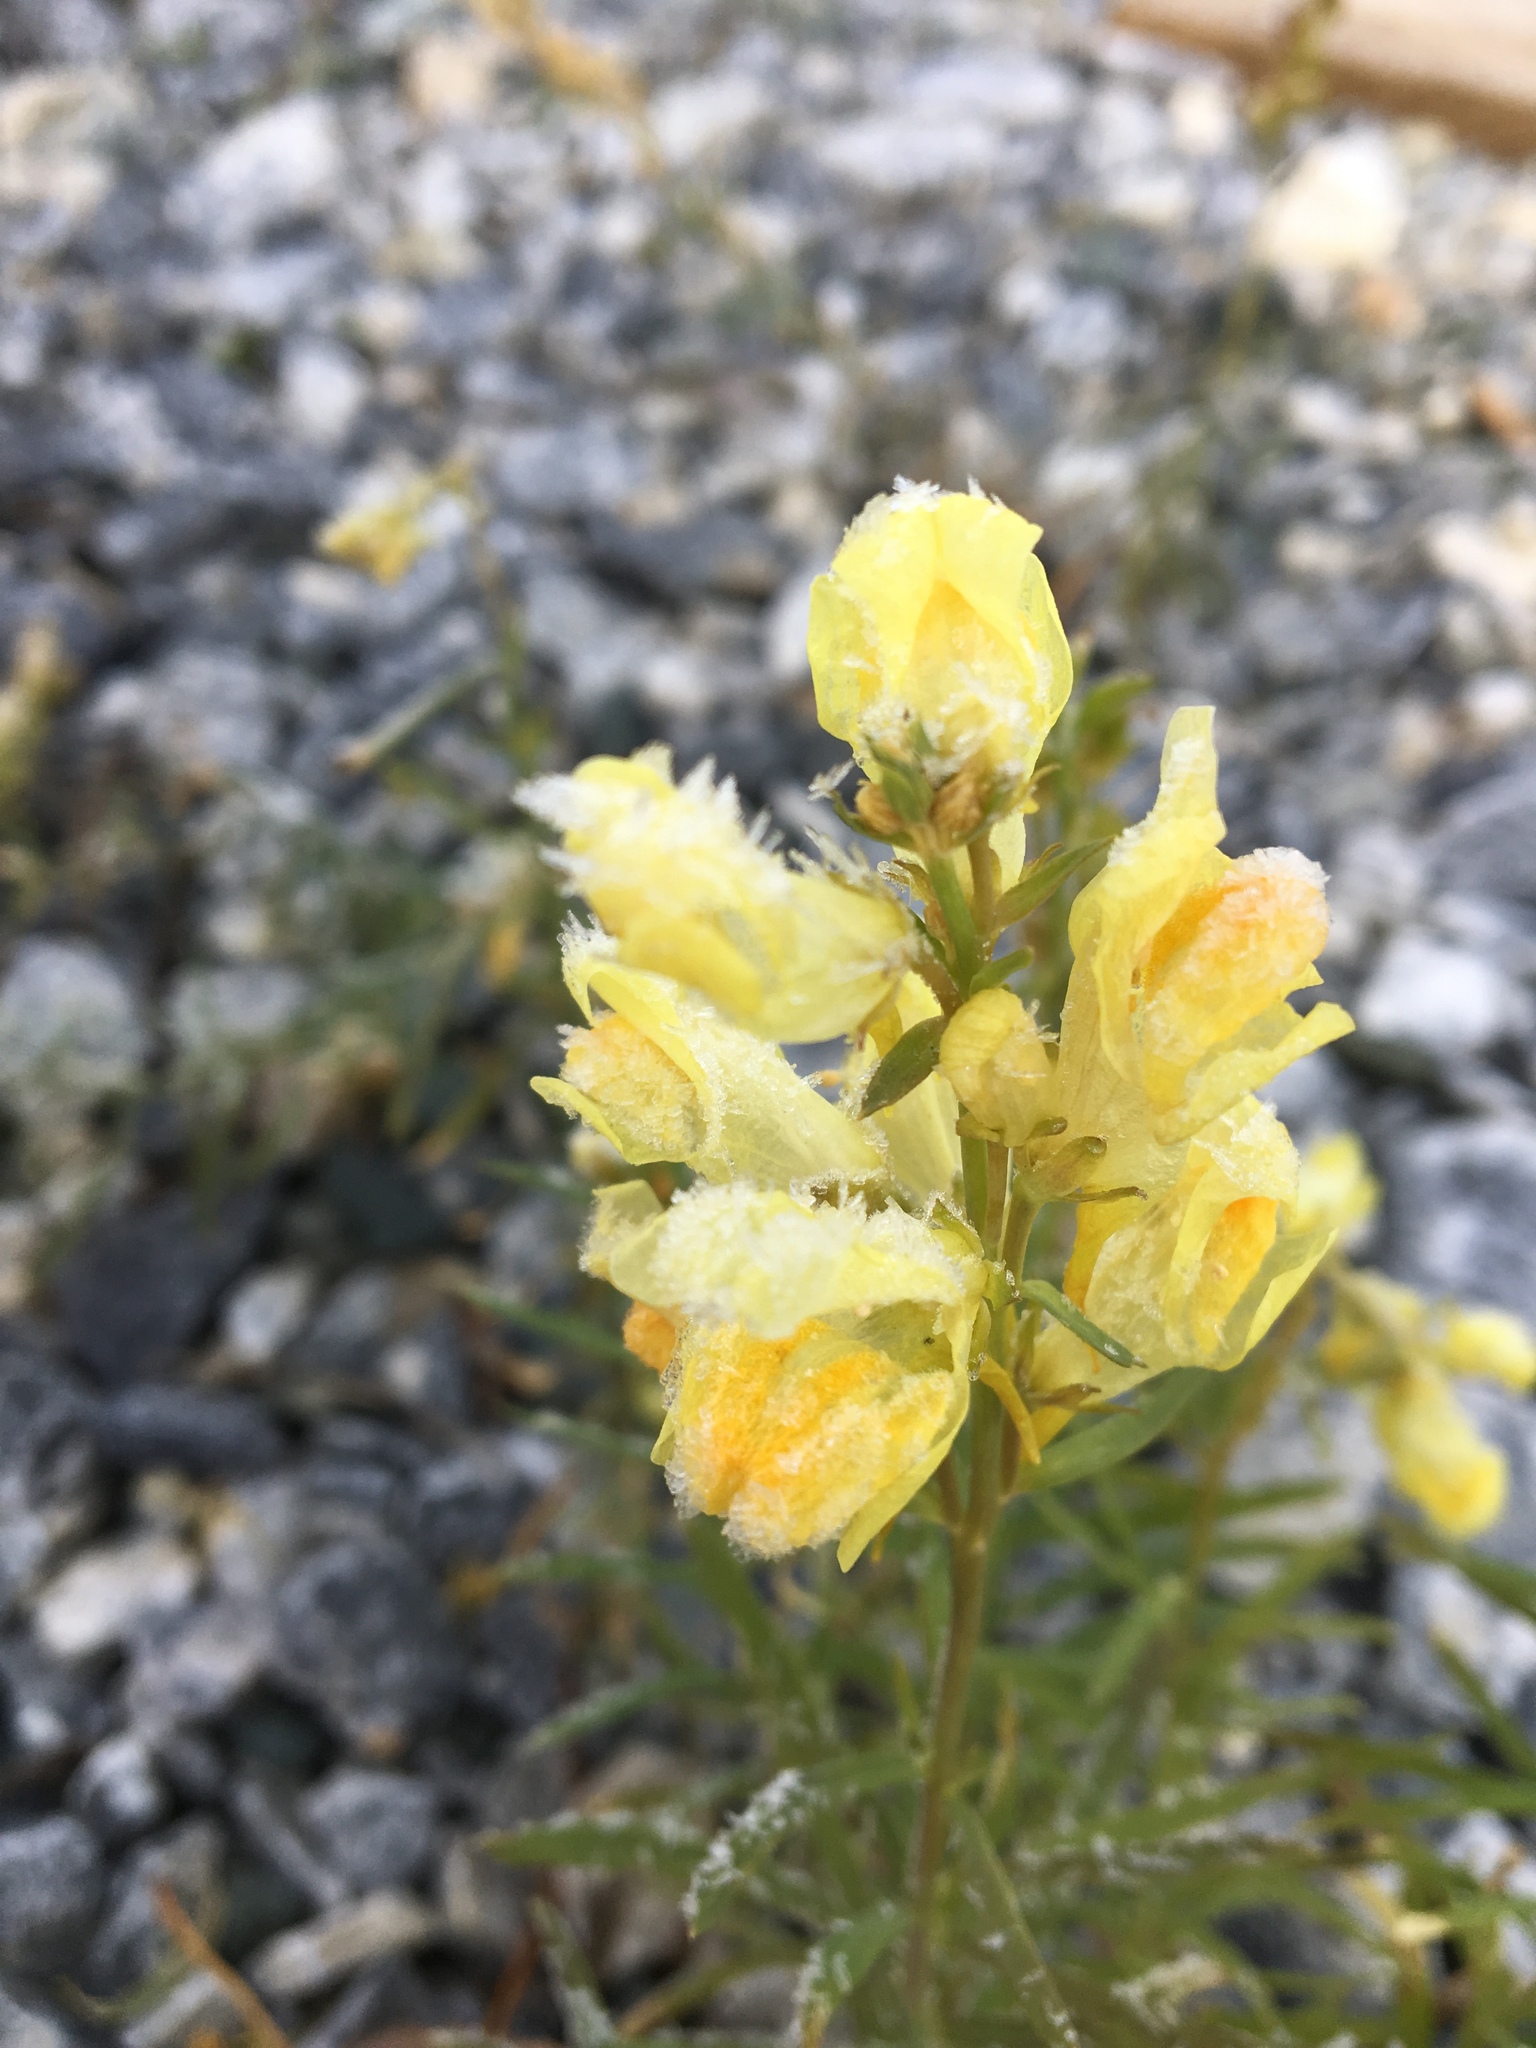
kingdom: Plantae
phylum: Tracheophyta
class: Magnoliopsida
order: Lamiales
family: Plantaginaceae
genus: Linaria
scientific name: Linaria vulgaris
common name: Butter and eggs
